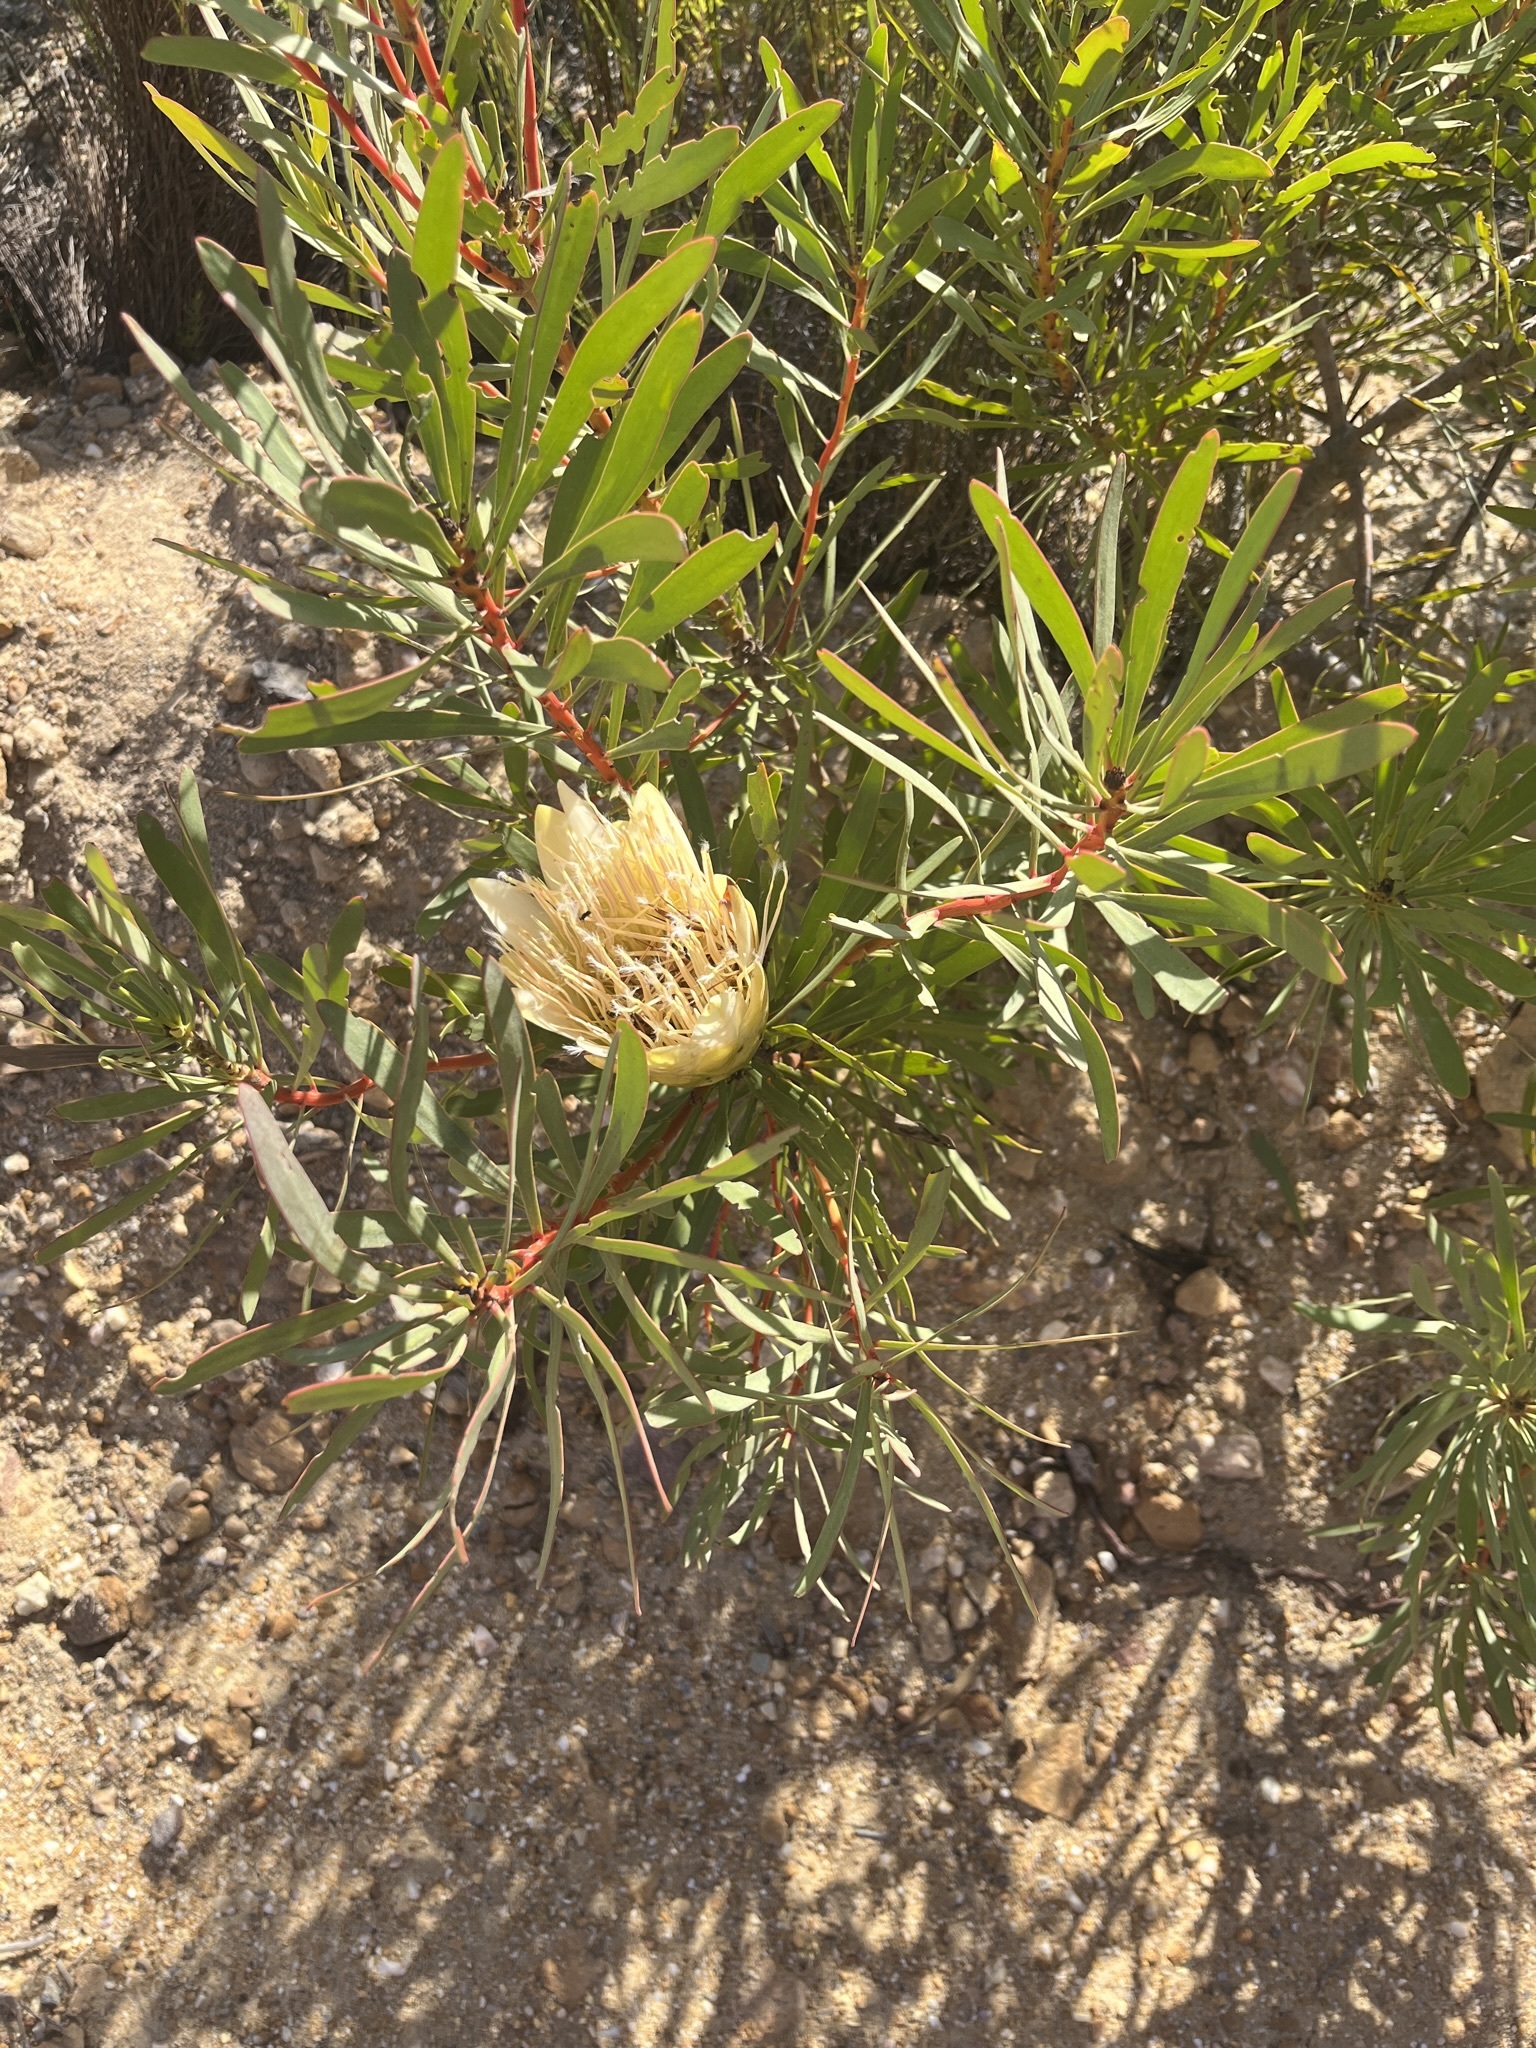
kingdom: Plantae
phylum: Tracheophyta
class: Magnoliopsida
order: Proteales
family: Proteaceae
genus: Protea
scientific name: Protea repens
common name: Sugarbush
